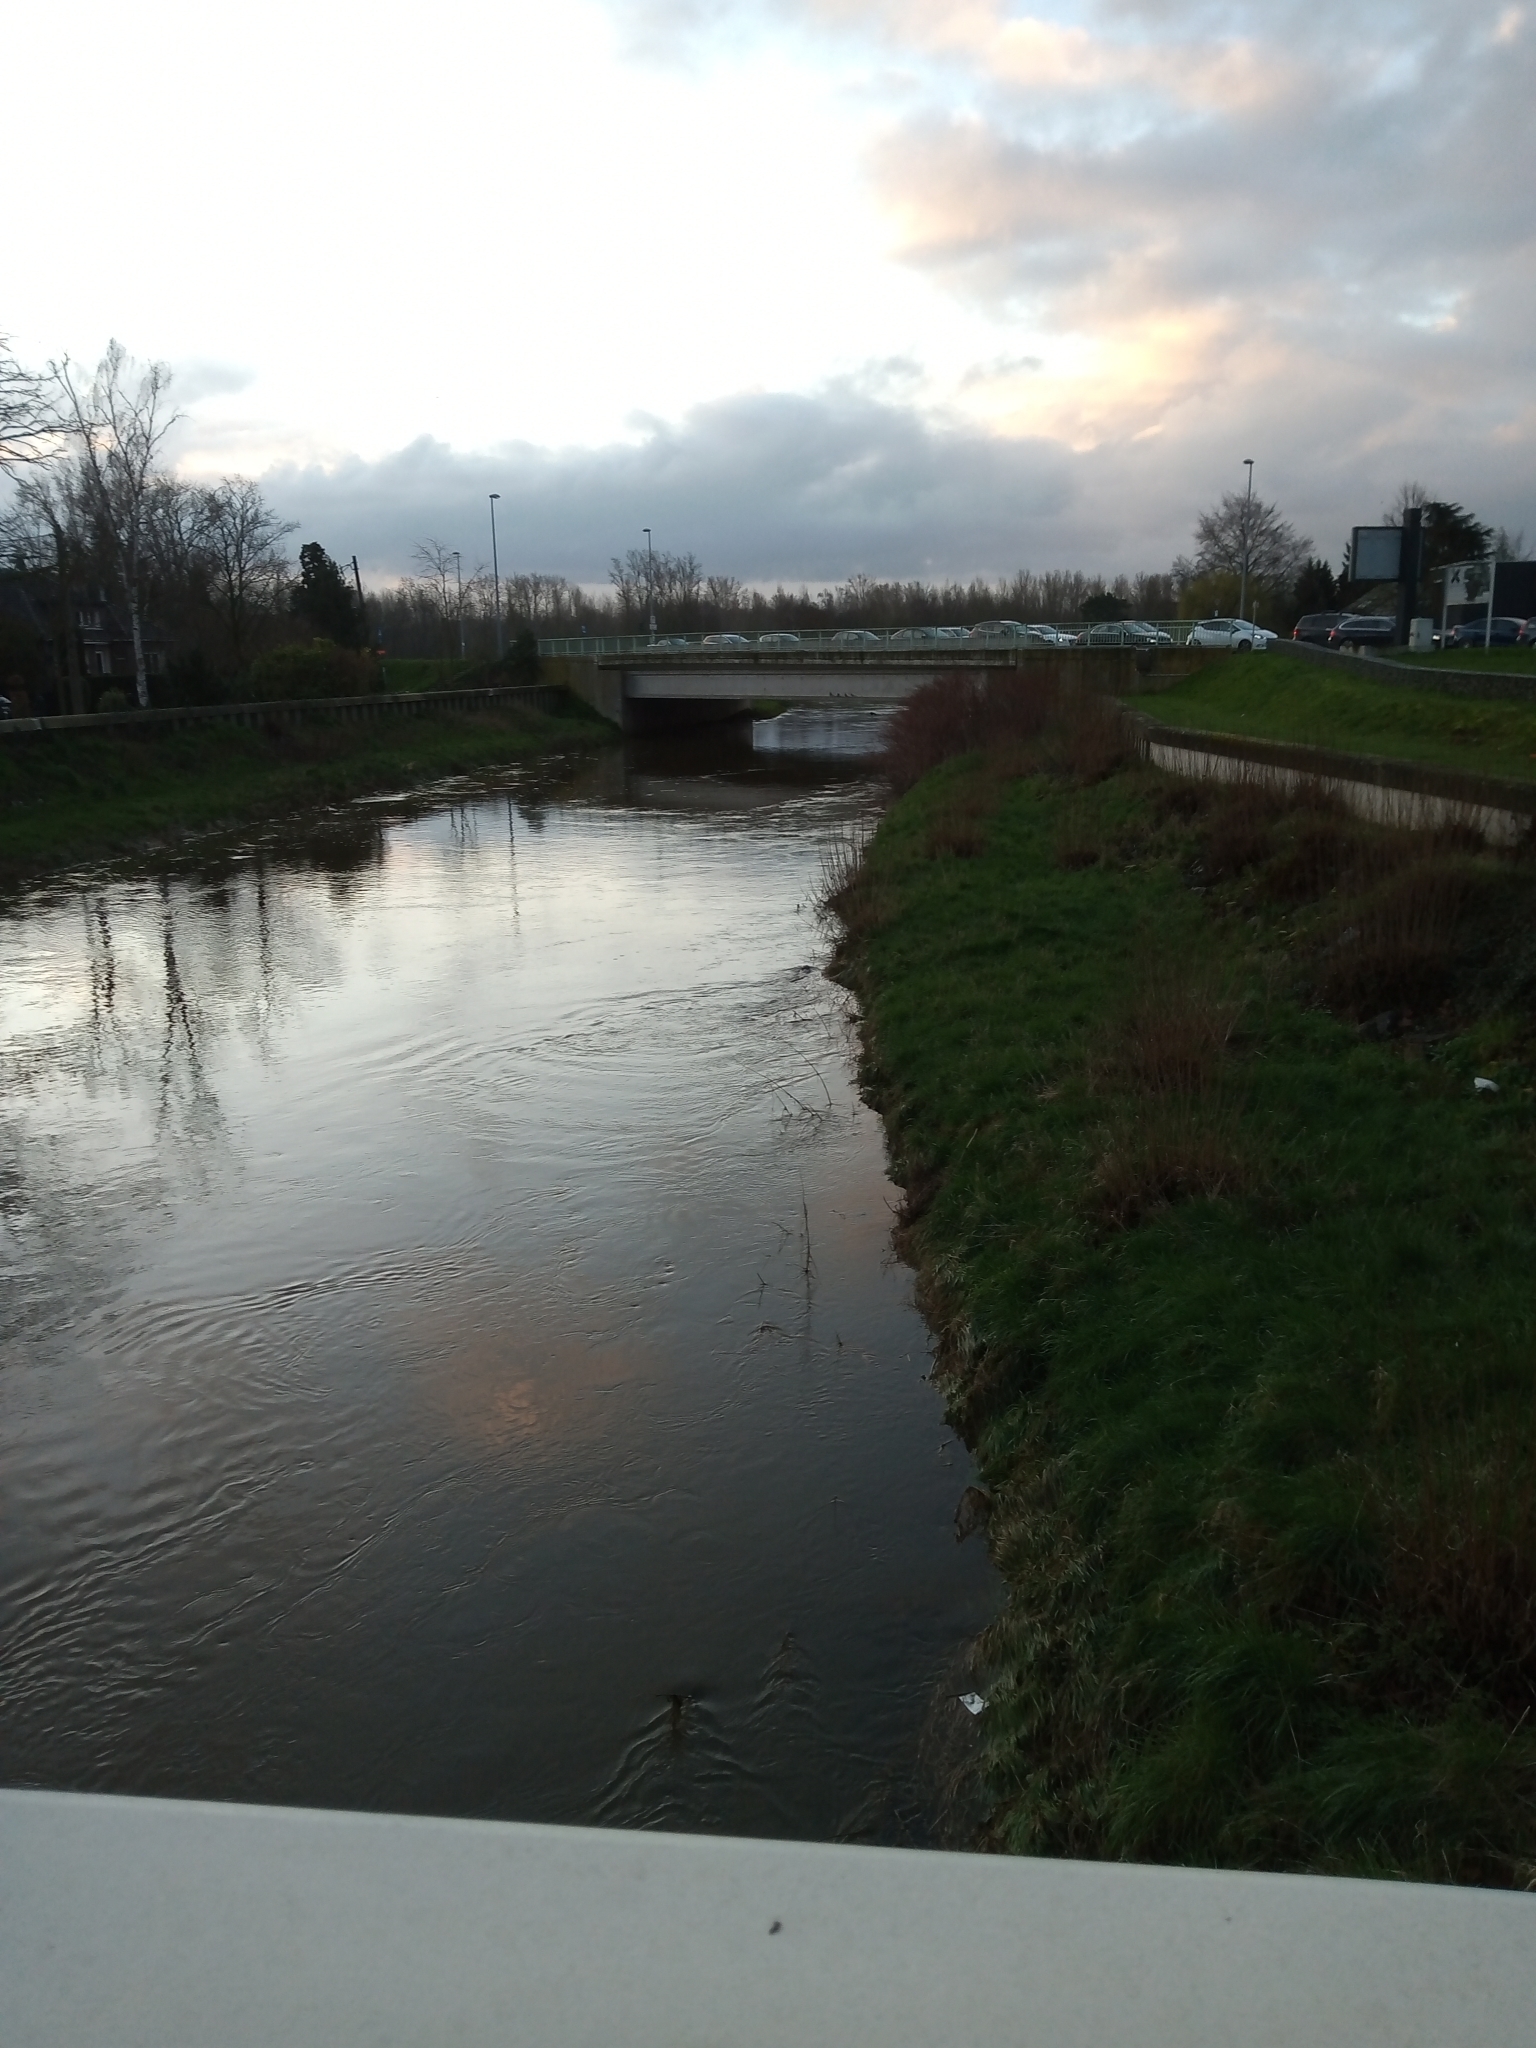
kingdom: Animalia
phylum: Chordata
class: Mammalia
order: Rodentia
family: Castoridae
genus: Castor
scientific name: Castor fiber
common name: Eurasian beaver
